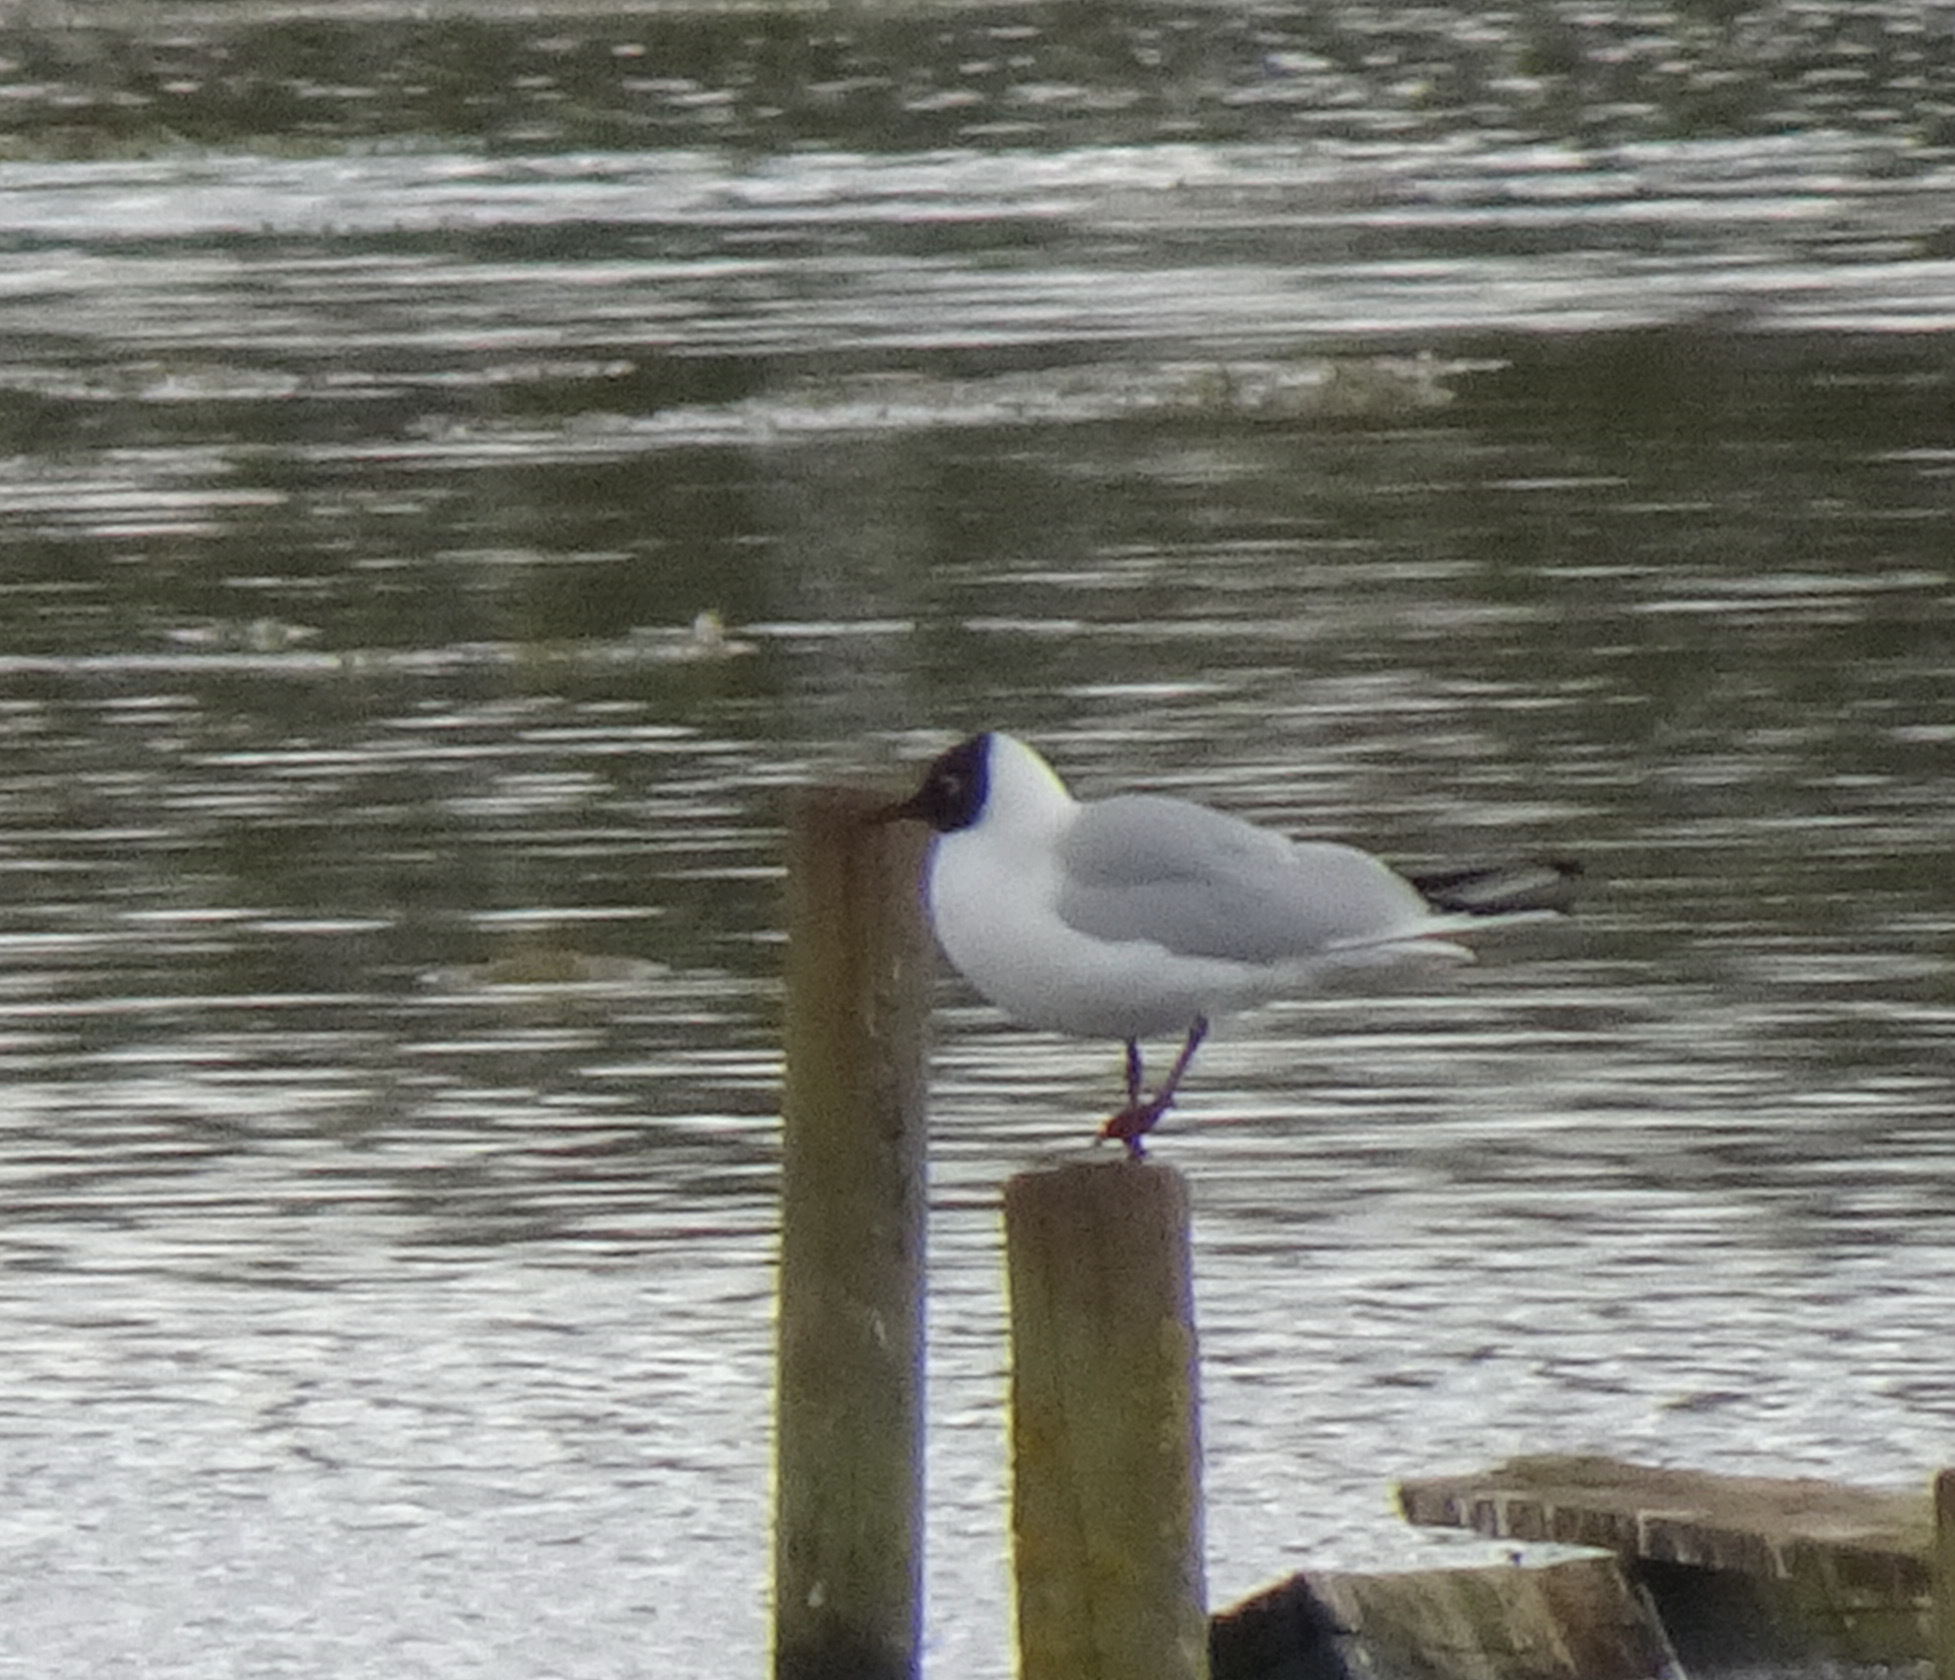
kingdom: Animalia
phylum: Chordata
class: Aves
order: Charadriiformes
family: Laridae
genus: Chroicocephalus
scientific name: Chroicocephalus ridibundus
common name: Black-headed gull
